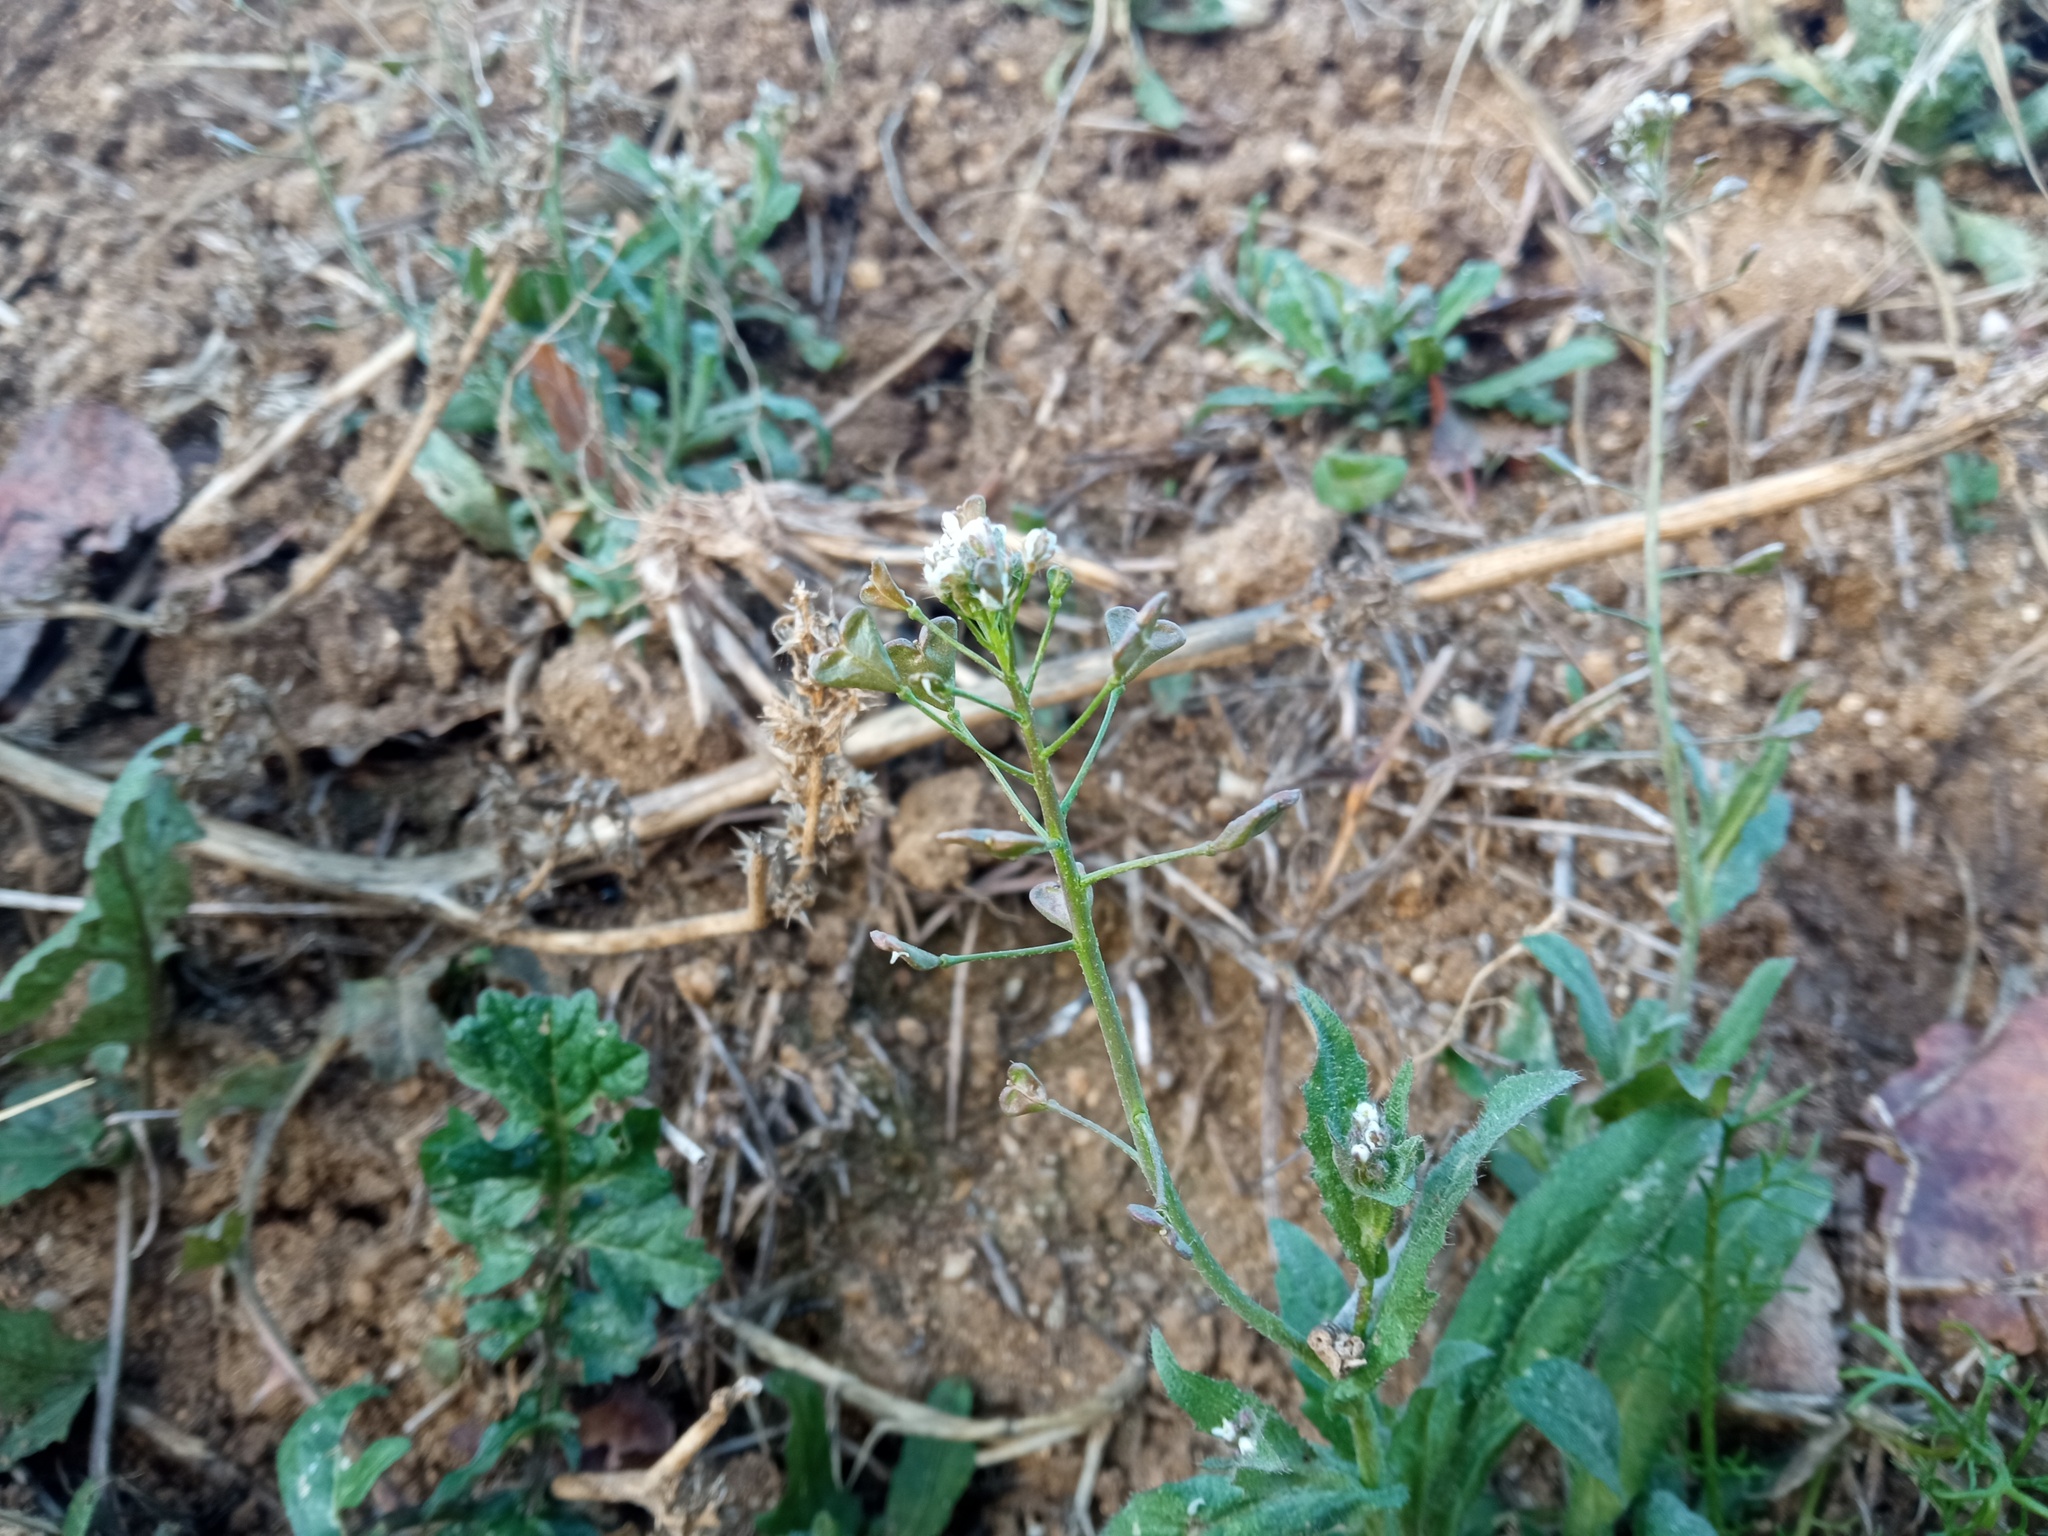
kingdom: Plantae
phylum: Tracheophyta
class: Magnoliopsida
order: Brassicales
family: Brassicaceae
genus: Capsella
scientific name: Capsella bursa-pastoris
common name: Shepherd's purse
